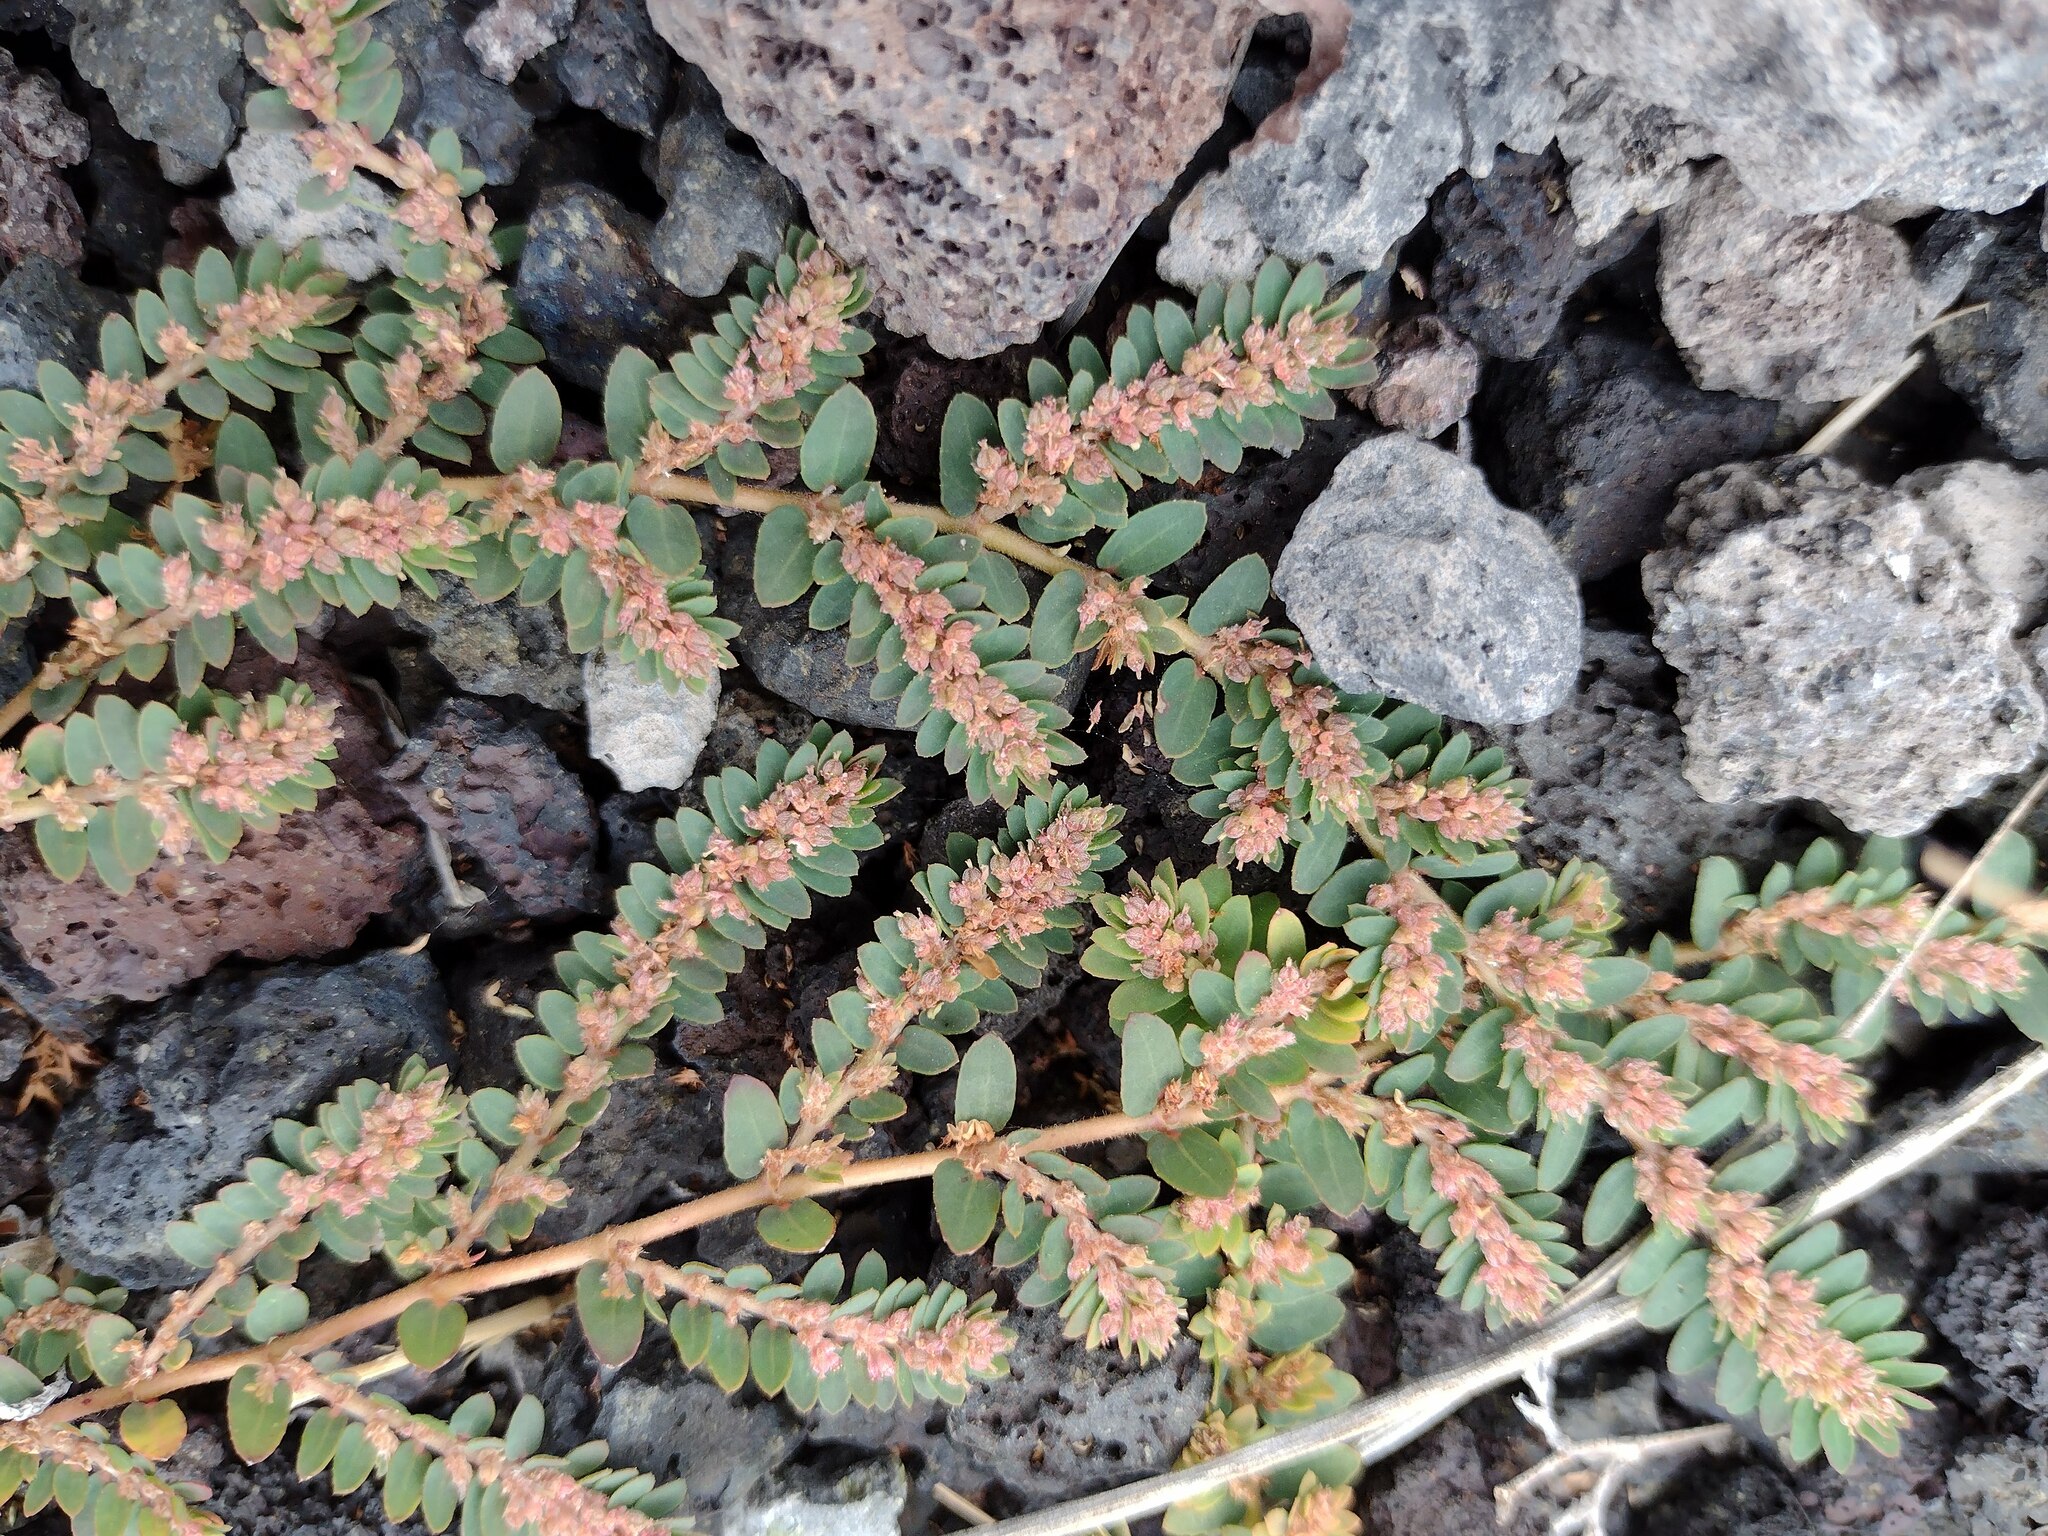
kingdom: Plantae
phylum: Tracheophyta
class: Magnoliopsida
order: Malpighiales
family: Euphorbiaceae
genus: Euphorbia
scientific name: Euphorbia thymifolia
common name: Gulf sandmat
